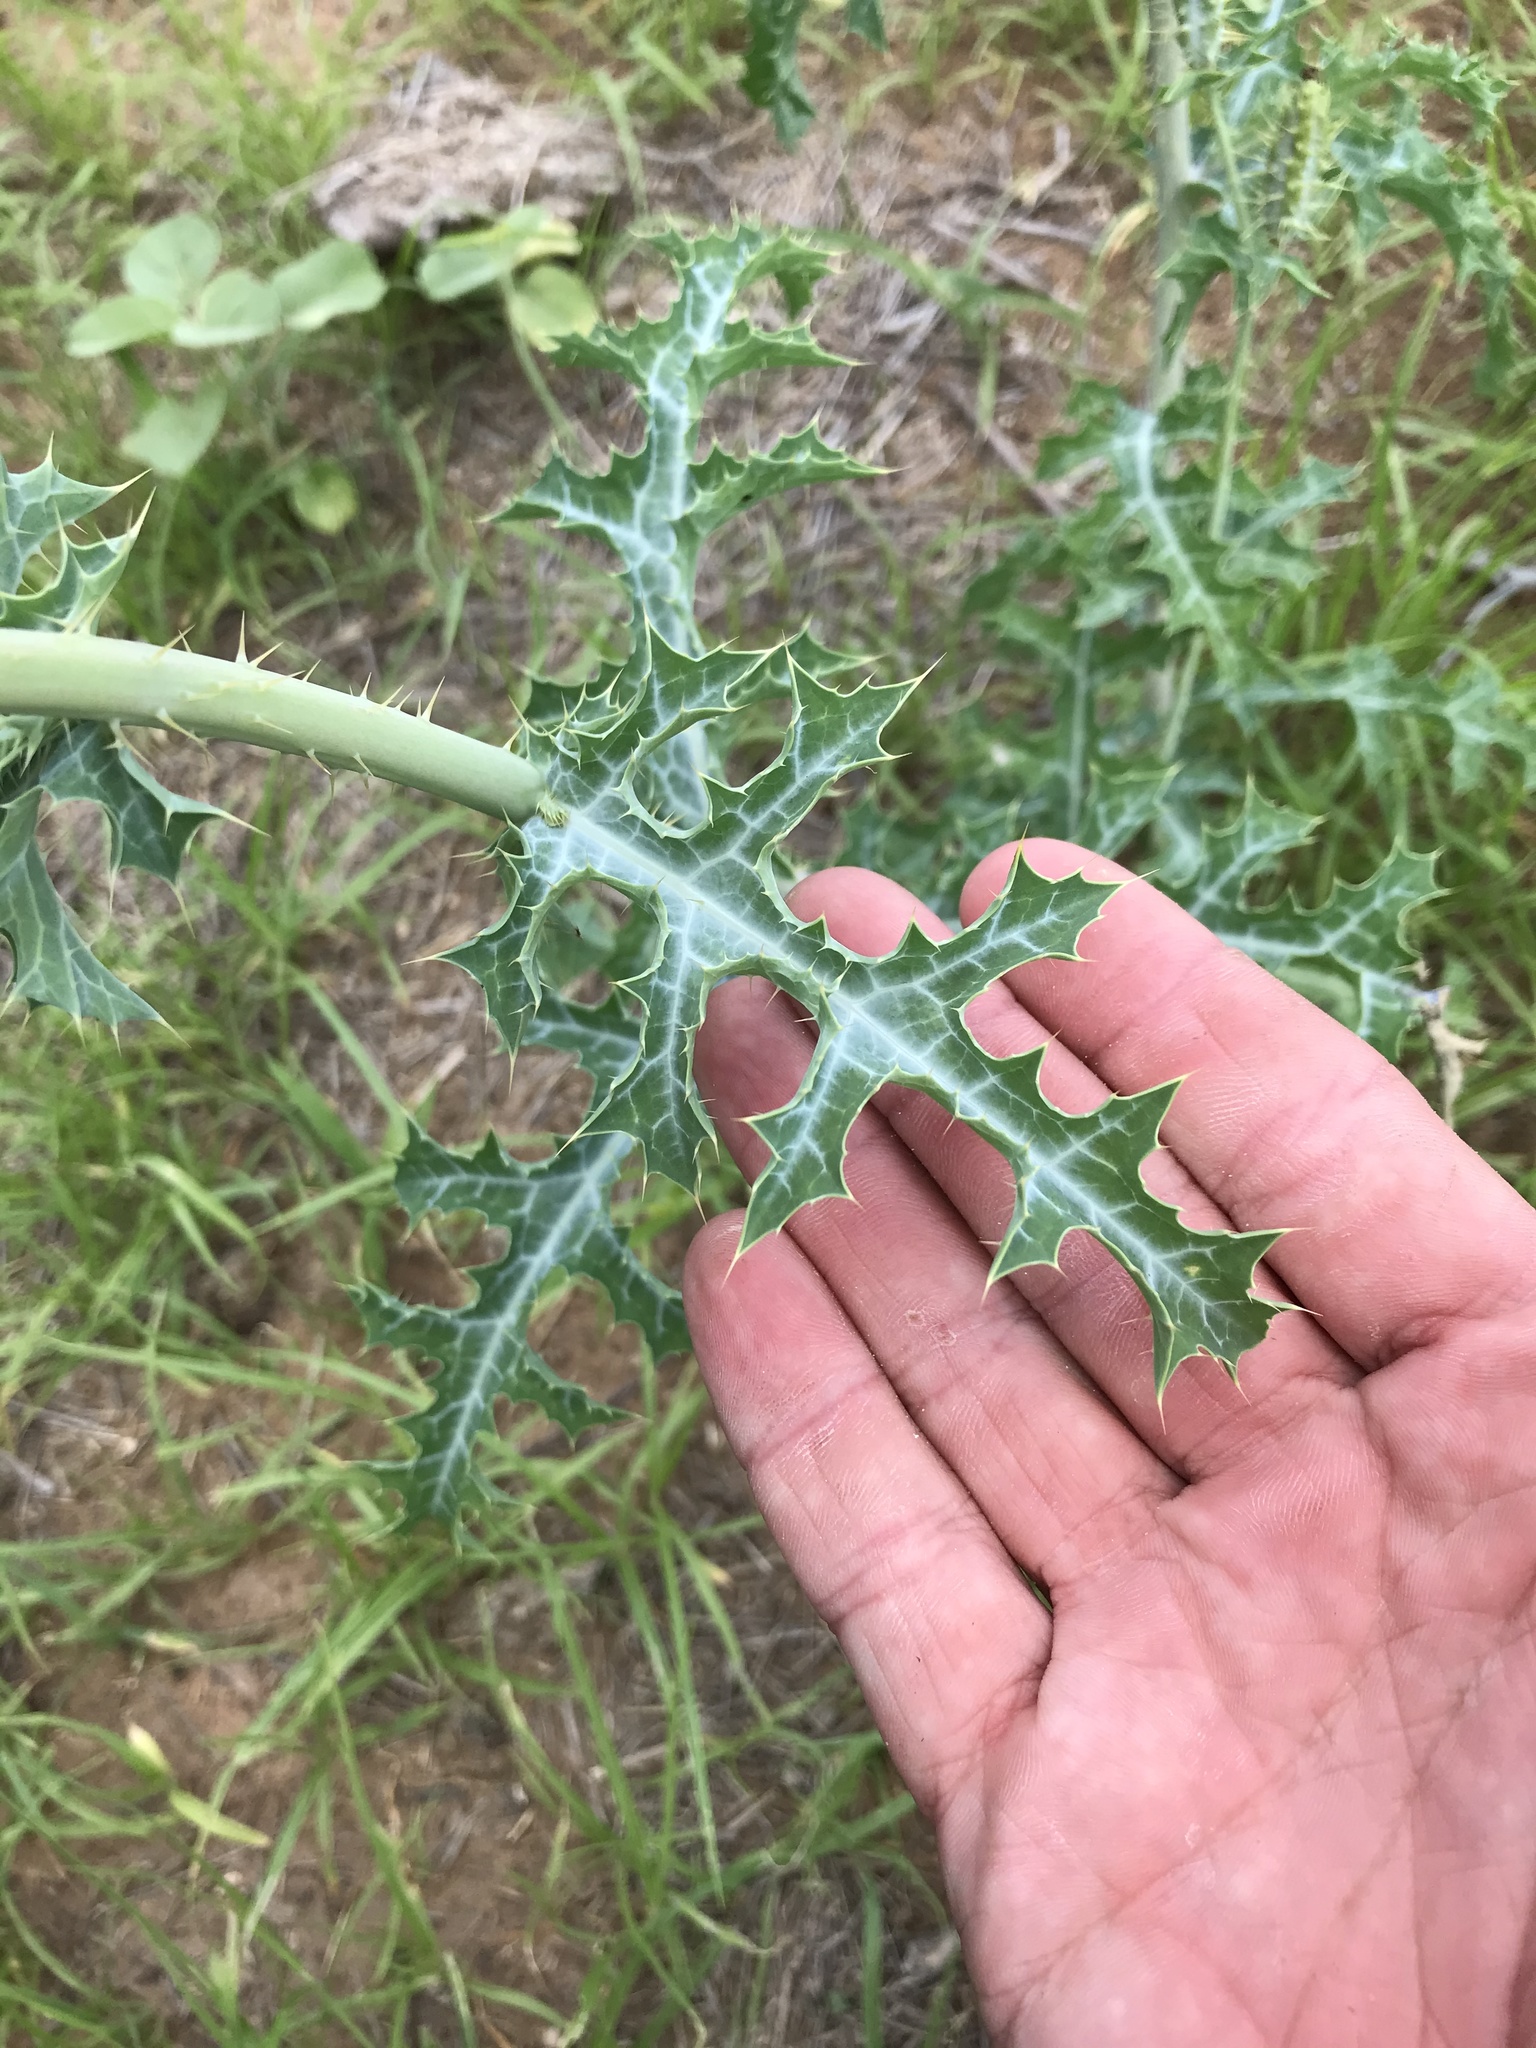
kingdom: Plantae
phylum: Tracheophyta
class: Magnoliopsida
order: Ranunculales
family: Papaveraceae
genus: Argemone
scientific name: Argemone sanguinea
